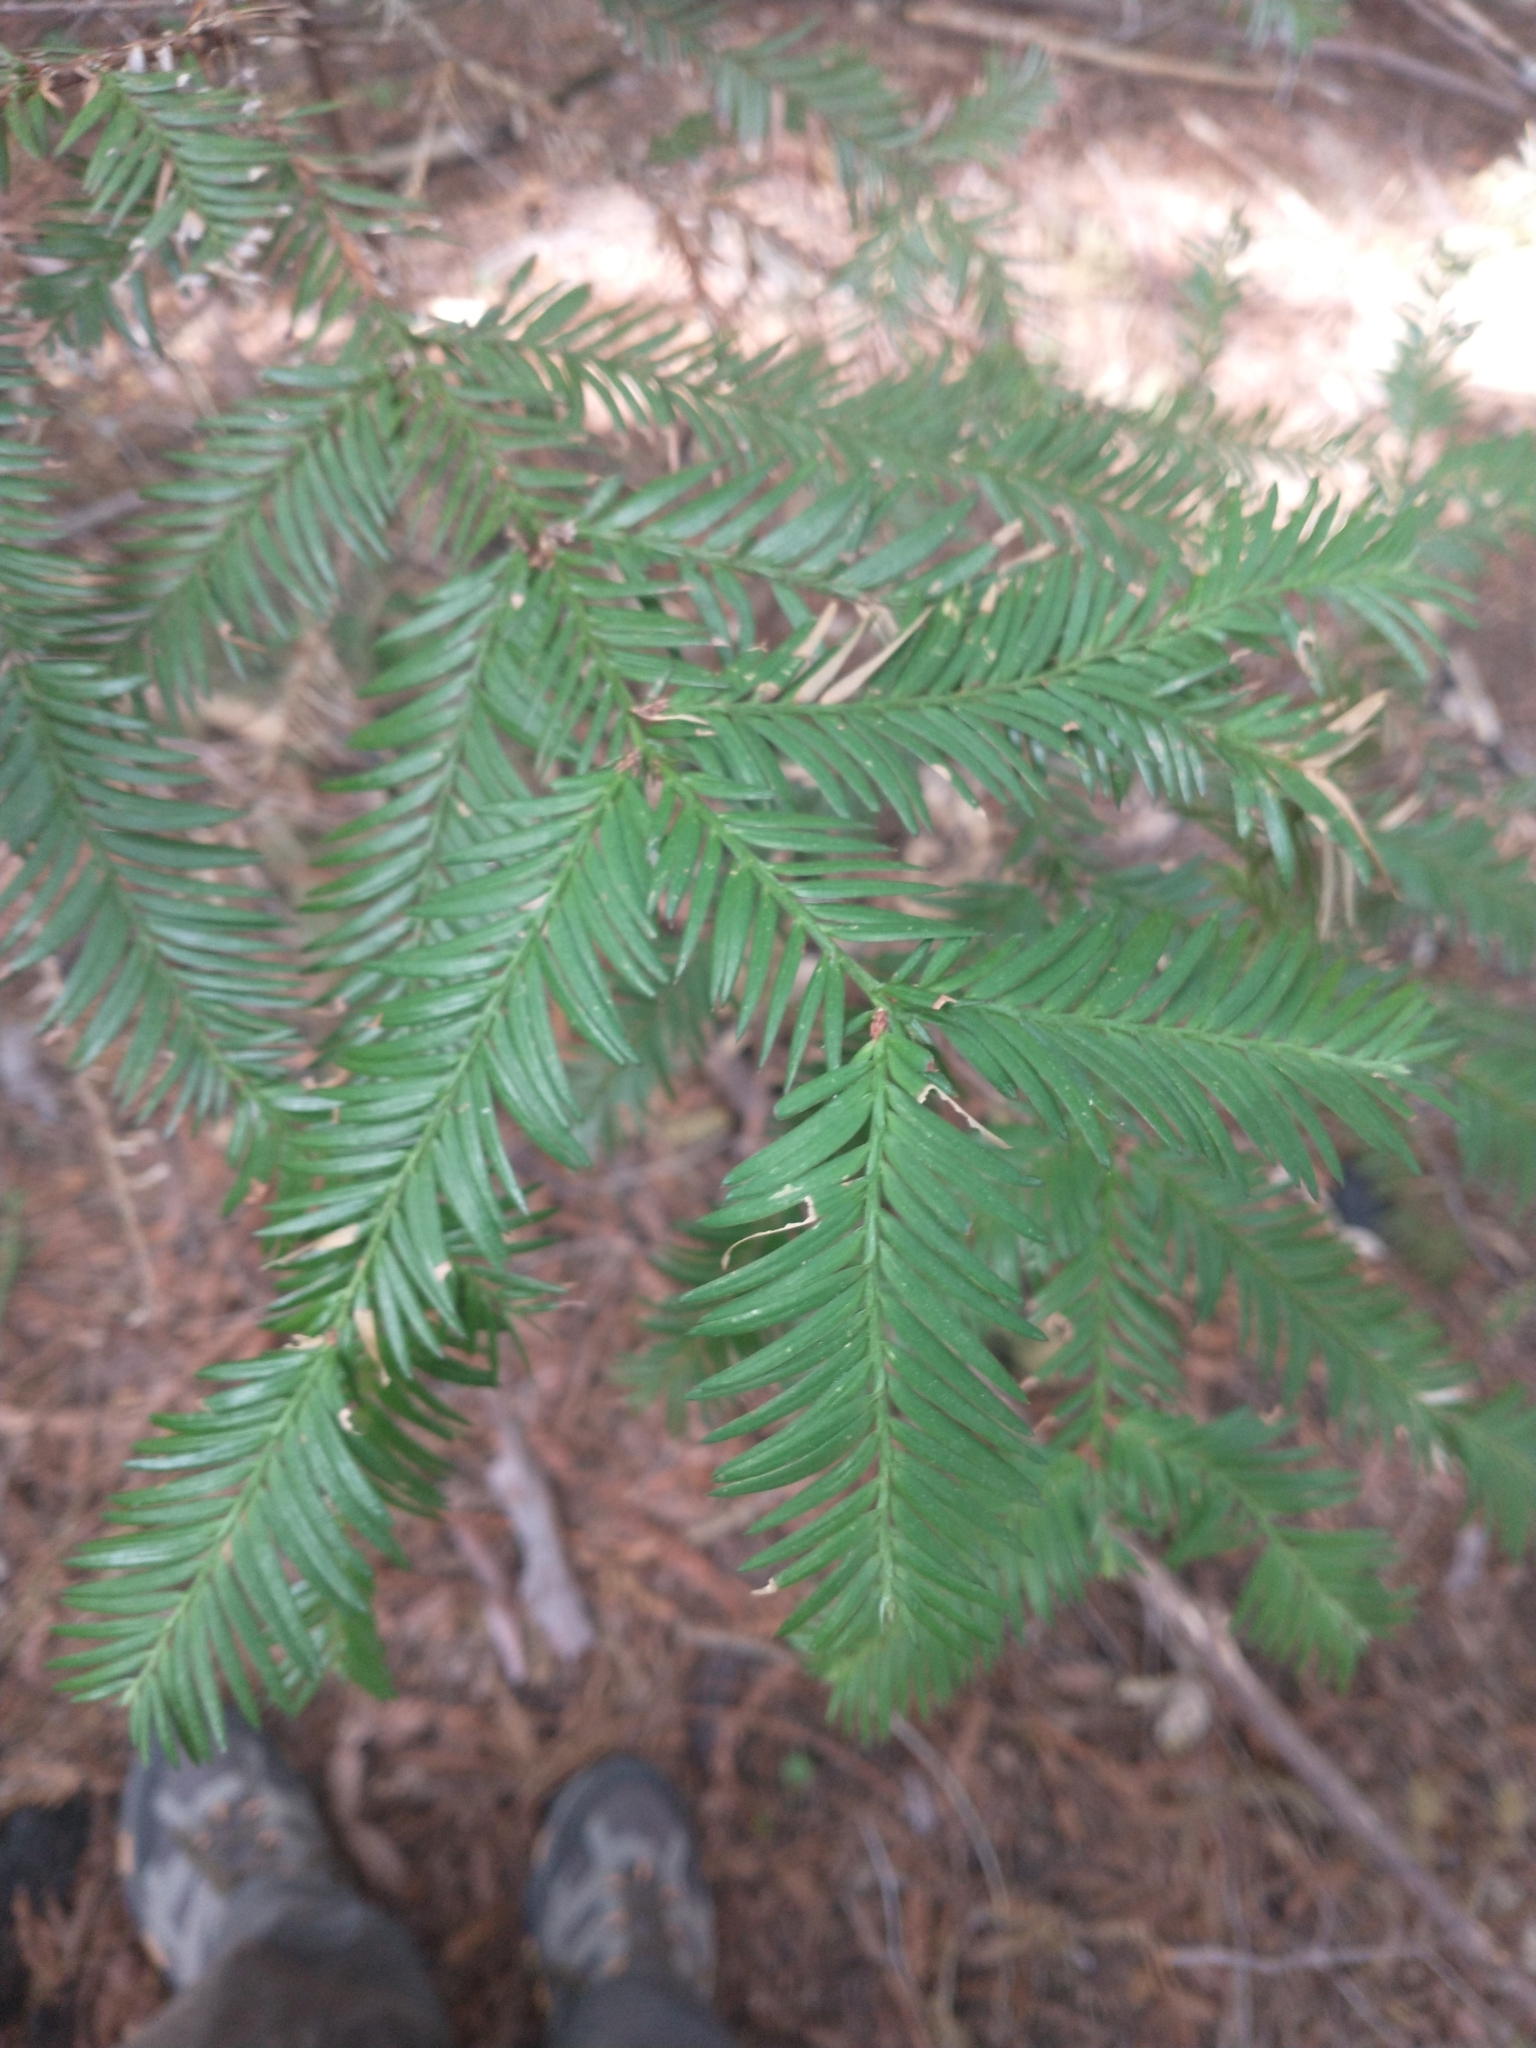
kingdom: Plantae
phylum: Tracheophyta
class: Pinopsida
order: Pinales
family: Cupressaceae
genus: Sequoia
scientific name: Sequoia sempervirens
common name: Coast redwood
